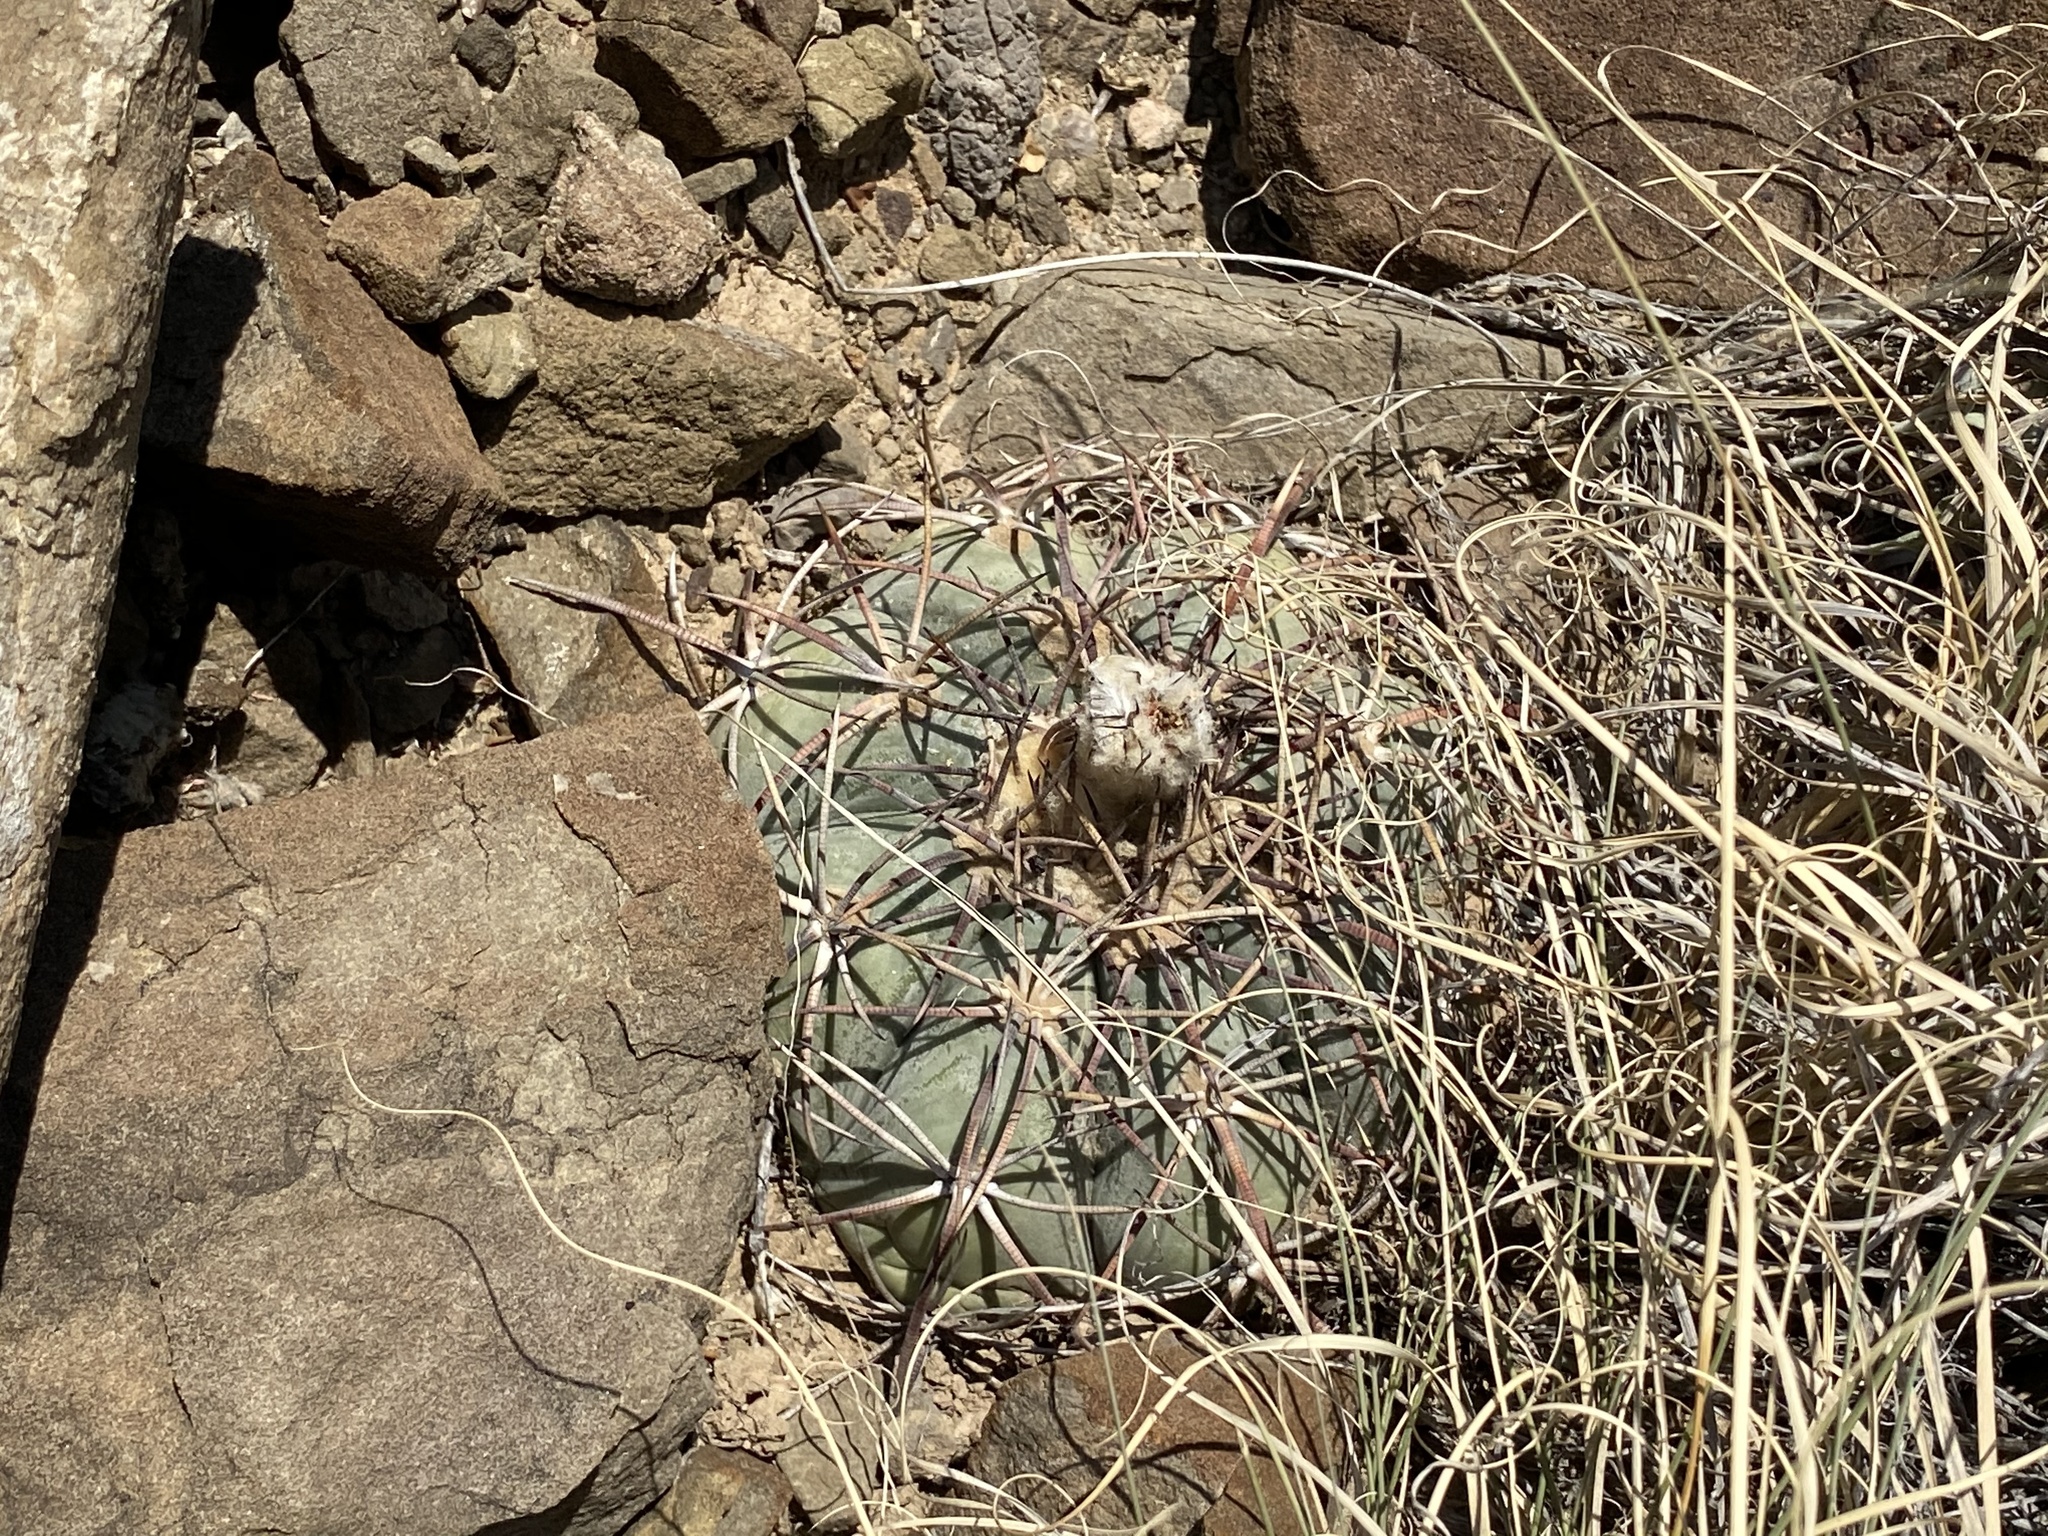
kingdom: Plantae
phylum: Tracheophyta
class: Magnoliopsida
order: Caryophyllales
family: Cactaceae
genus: Echinocactus
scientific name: Echinocactus horizonthalonius
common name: Devilshead
